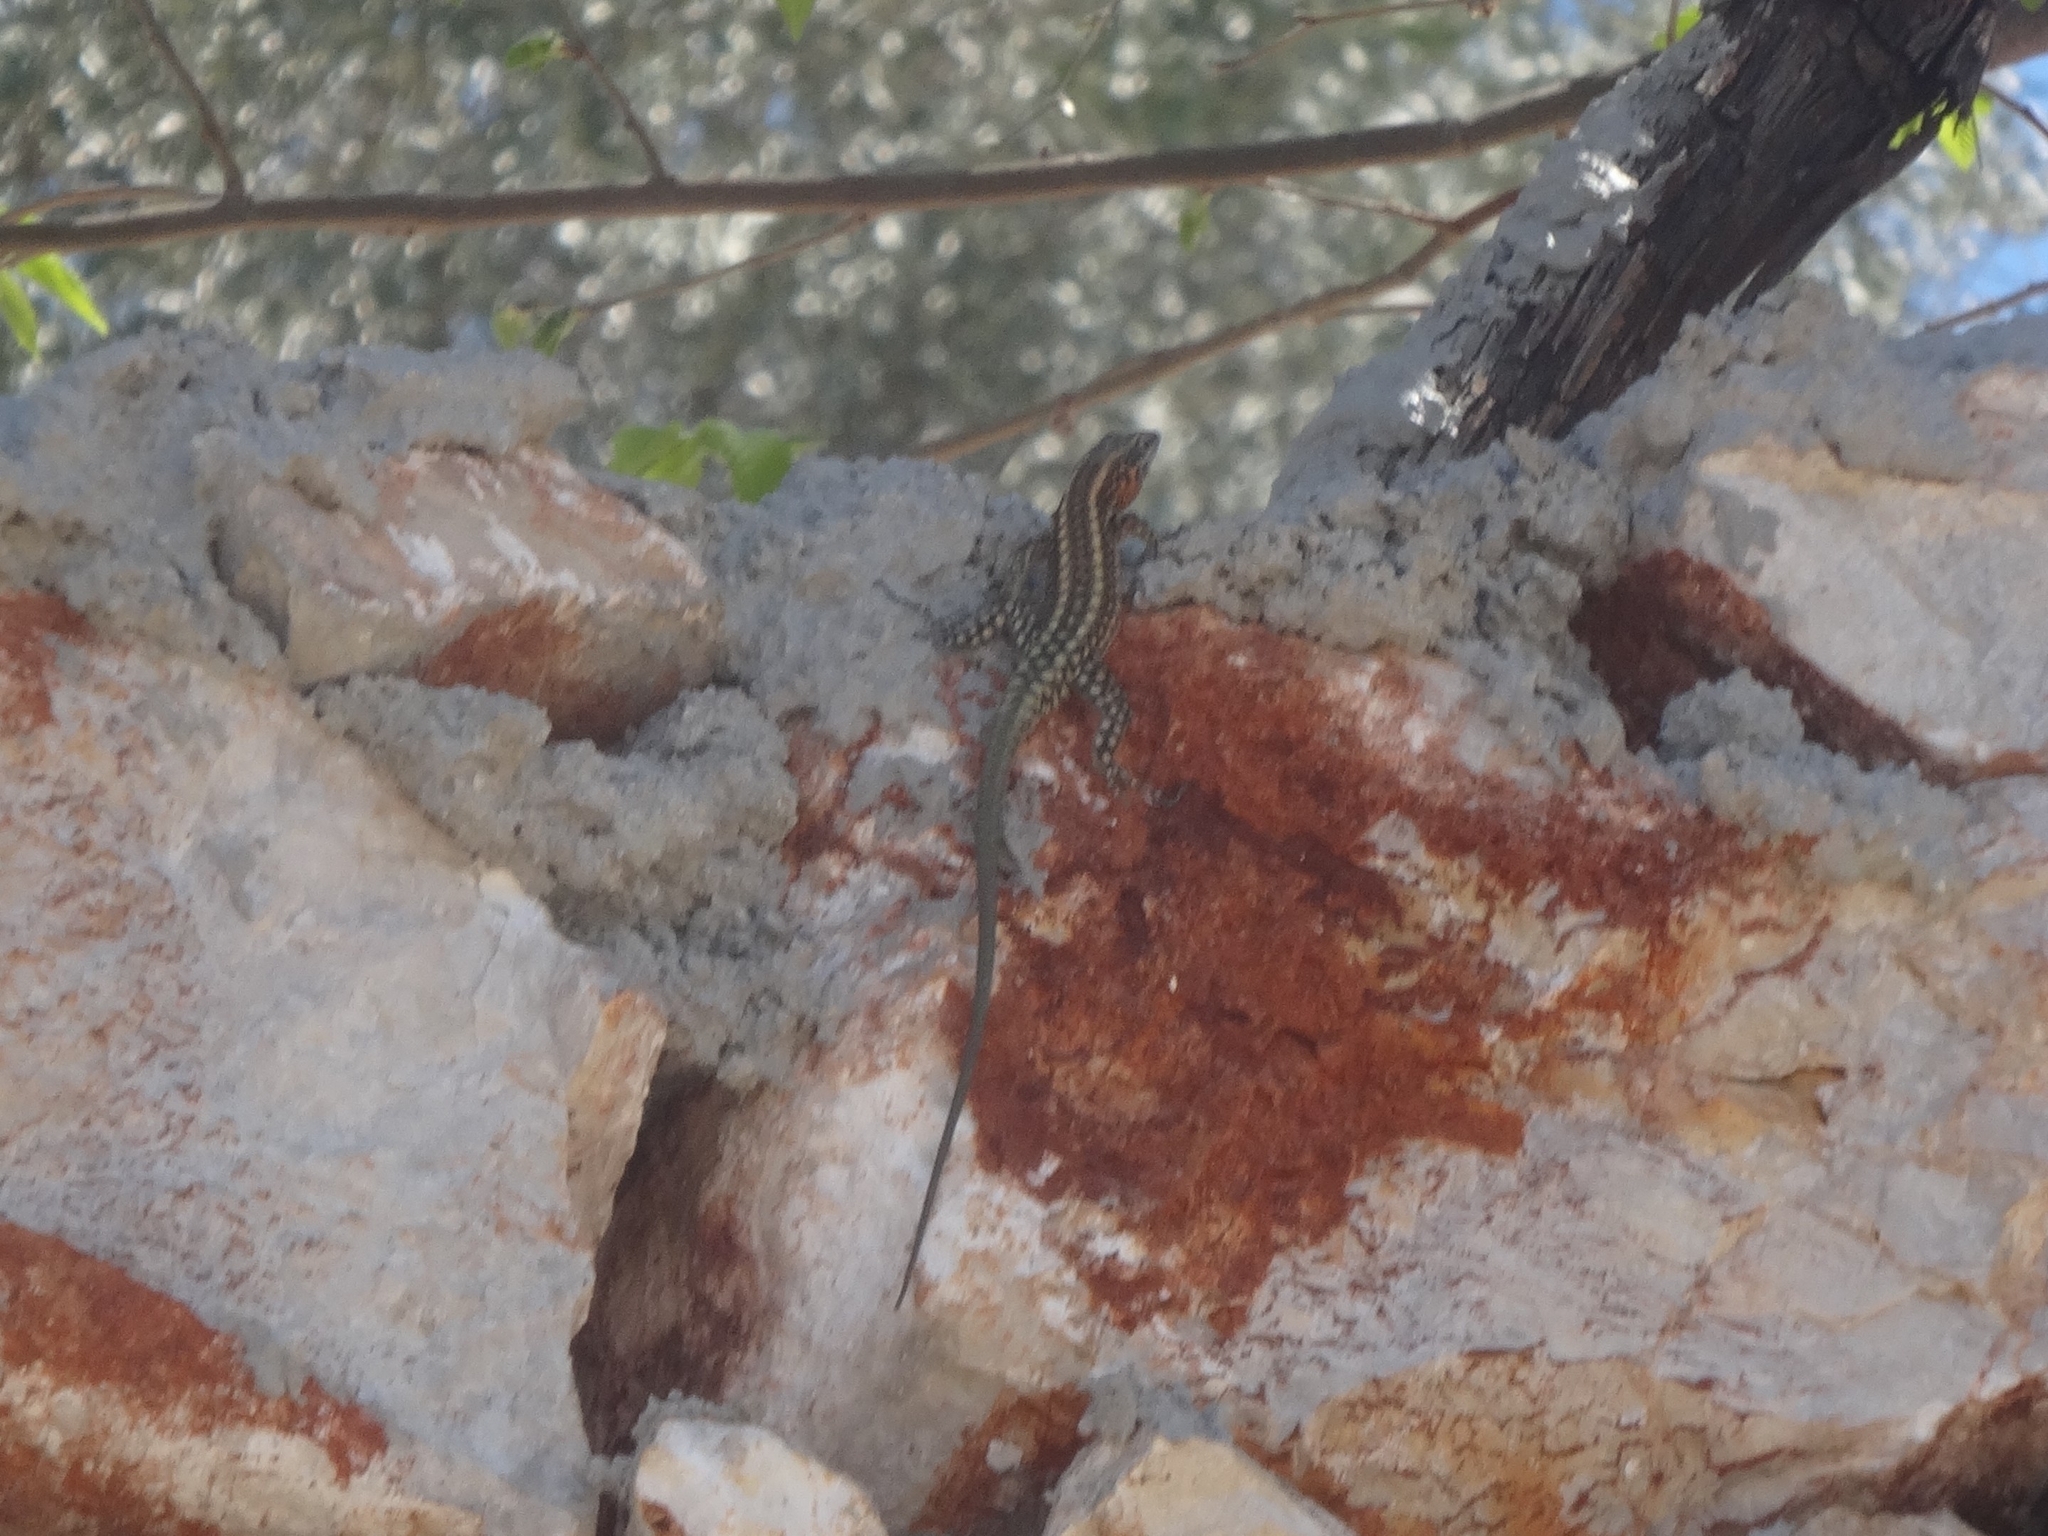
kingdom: Animalia
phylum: Chordata
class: Squamata
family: Lacertidae
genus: Anatololacerta
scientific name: Anatololacerta pelasgiana
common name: Pelasgian rock lizard
